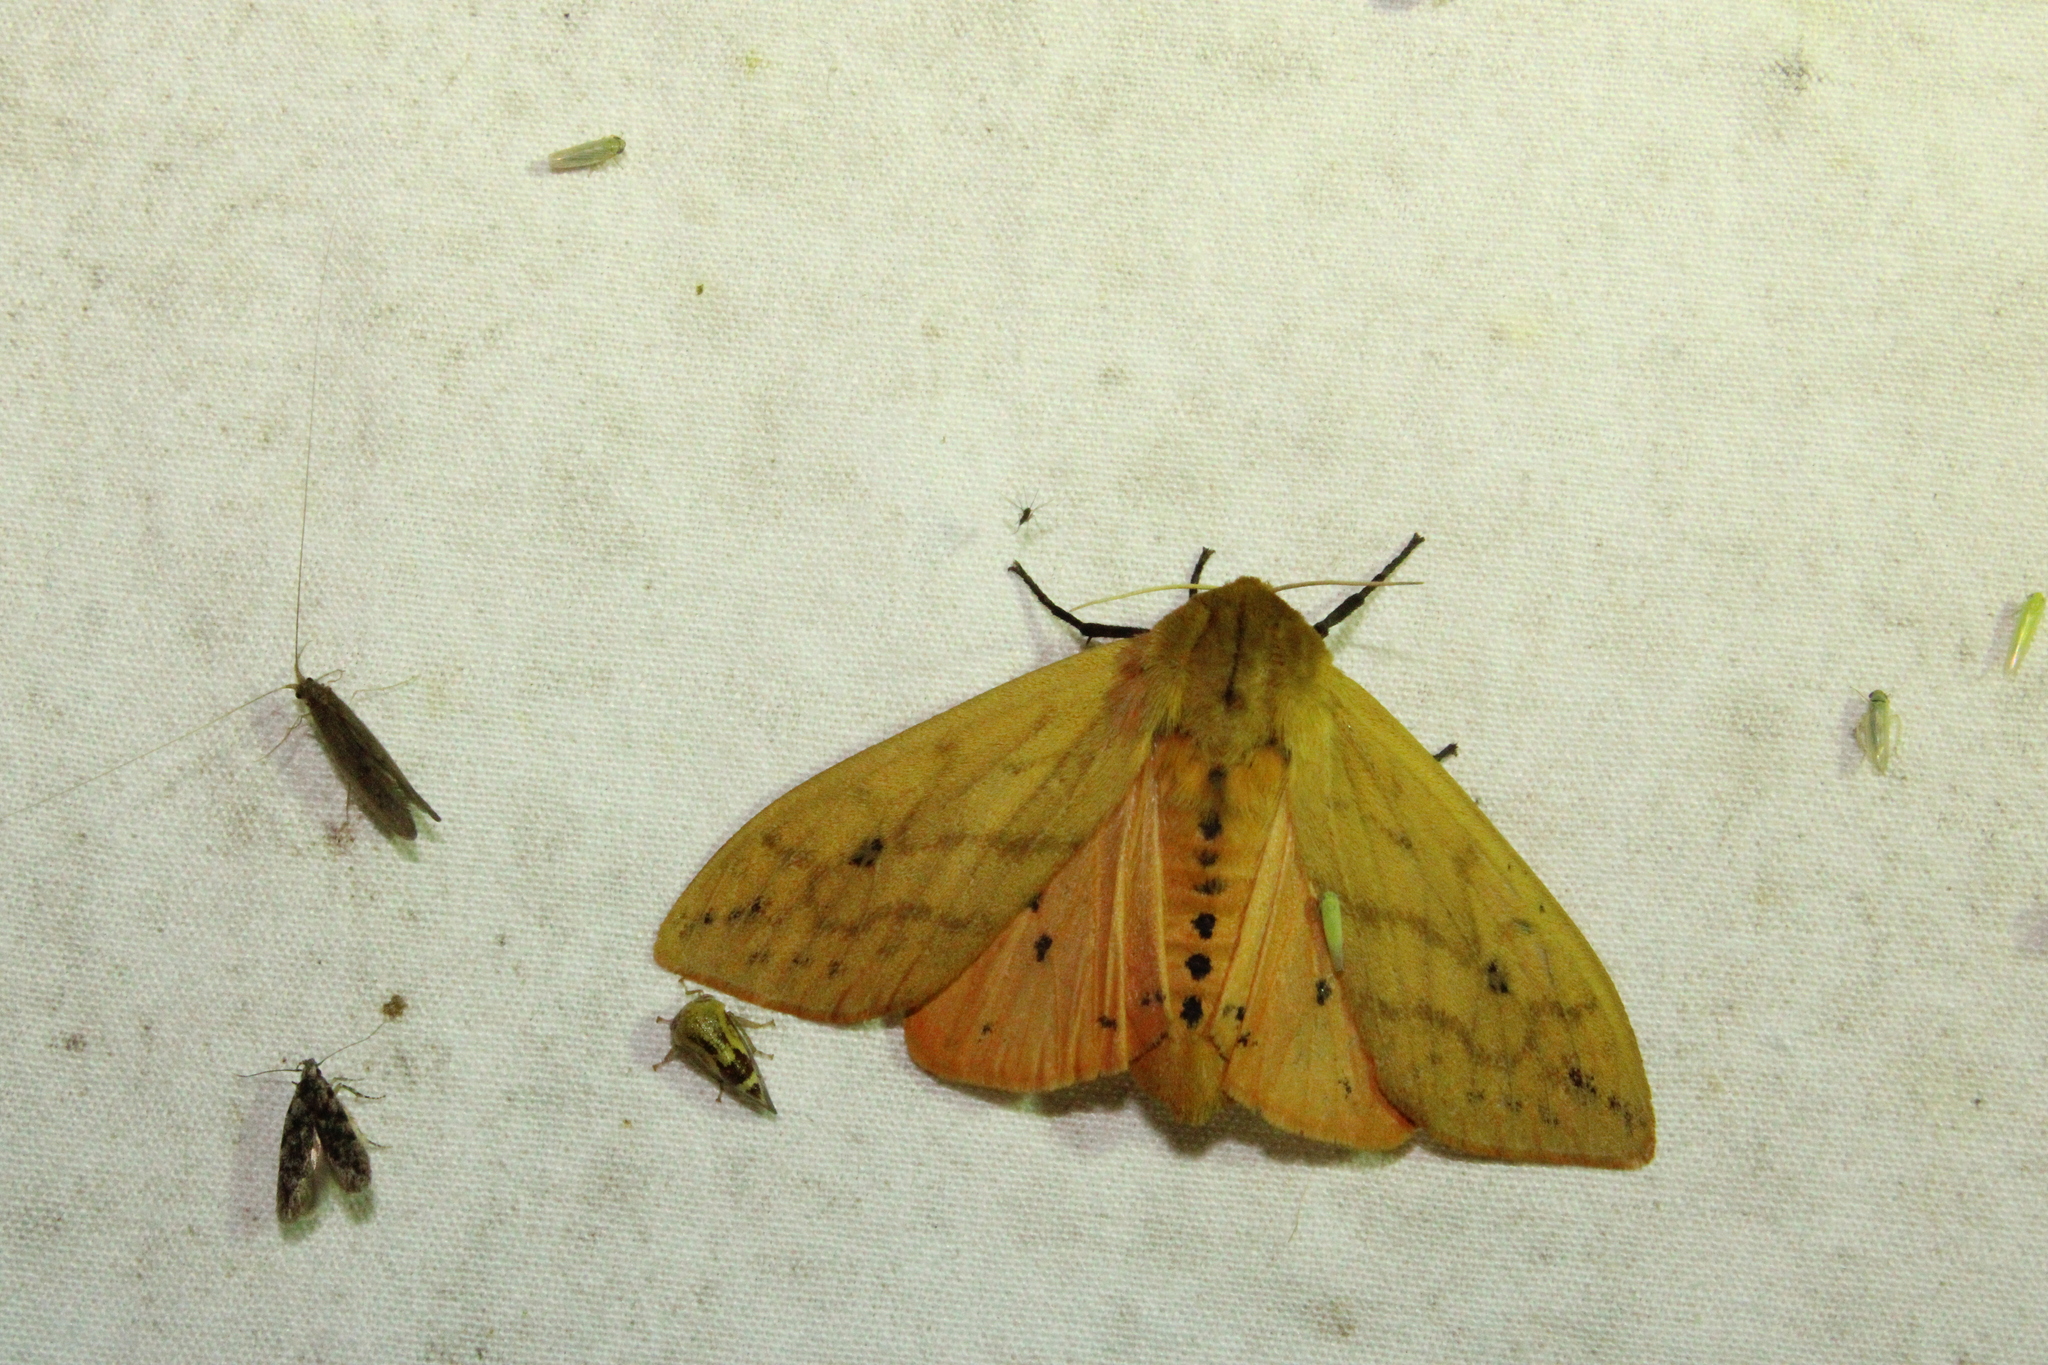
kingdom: Animalia
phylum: Arthropoda
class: Insecta
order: Lepidoptera
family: Erebidae
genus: Pyrrharctia
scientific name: Pyrrharctia isabella
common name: Isabella tiger moth
